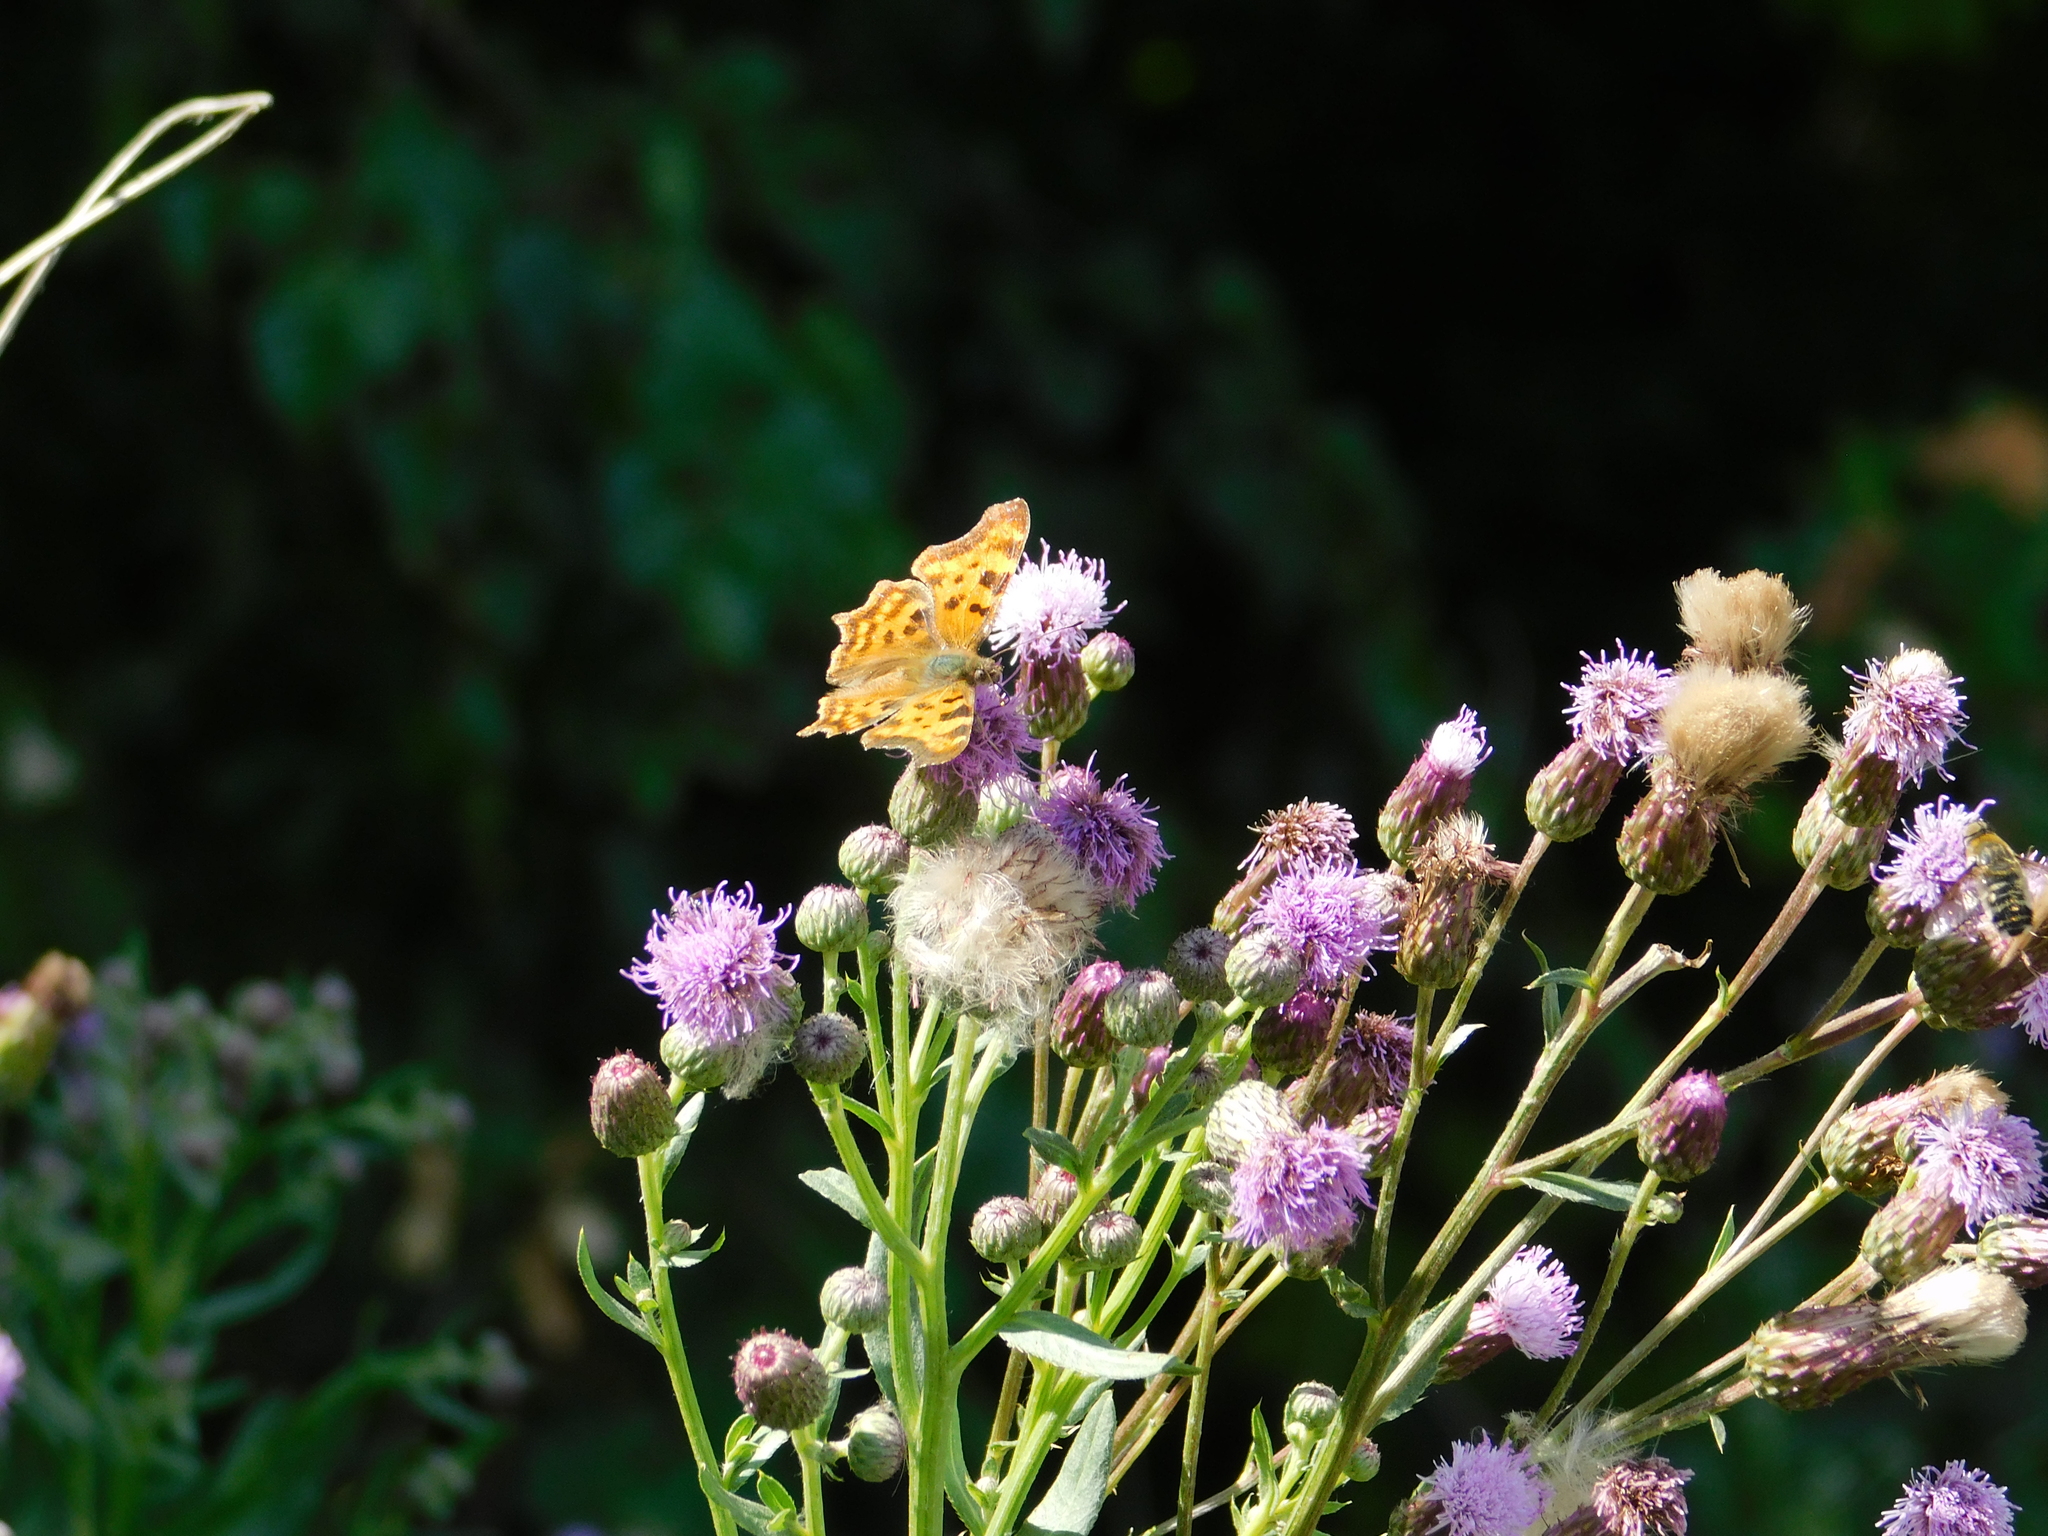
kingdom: Animalia
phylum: Arthropoda
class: Insecta
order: Lepidoptera
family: Nymphalidae
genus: Polygonia
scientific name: Polygonia c-album
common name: Comma
